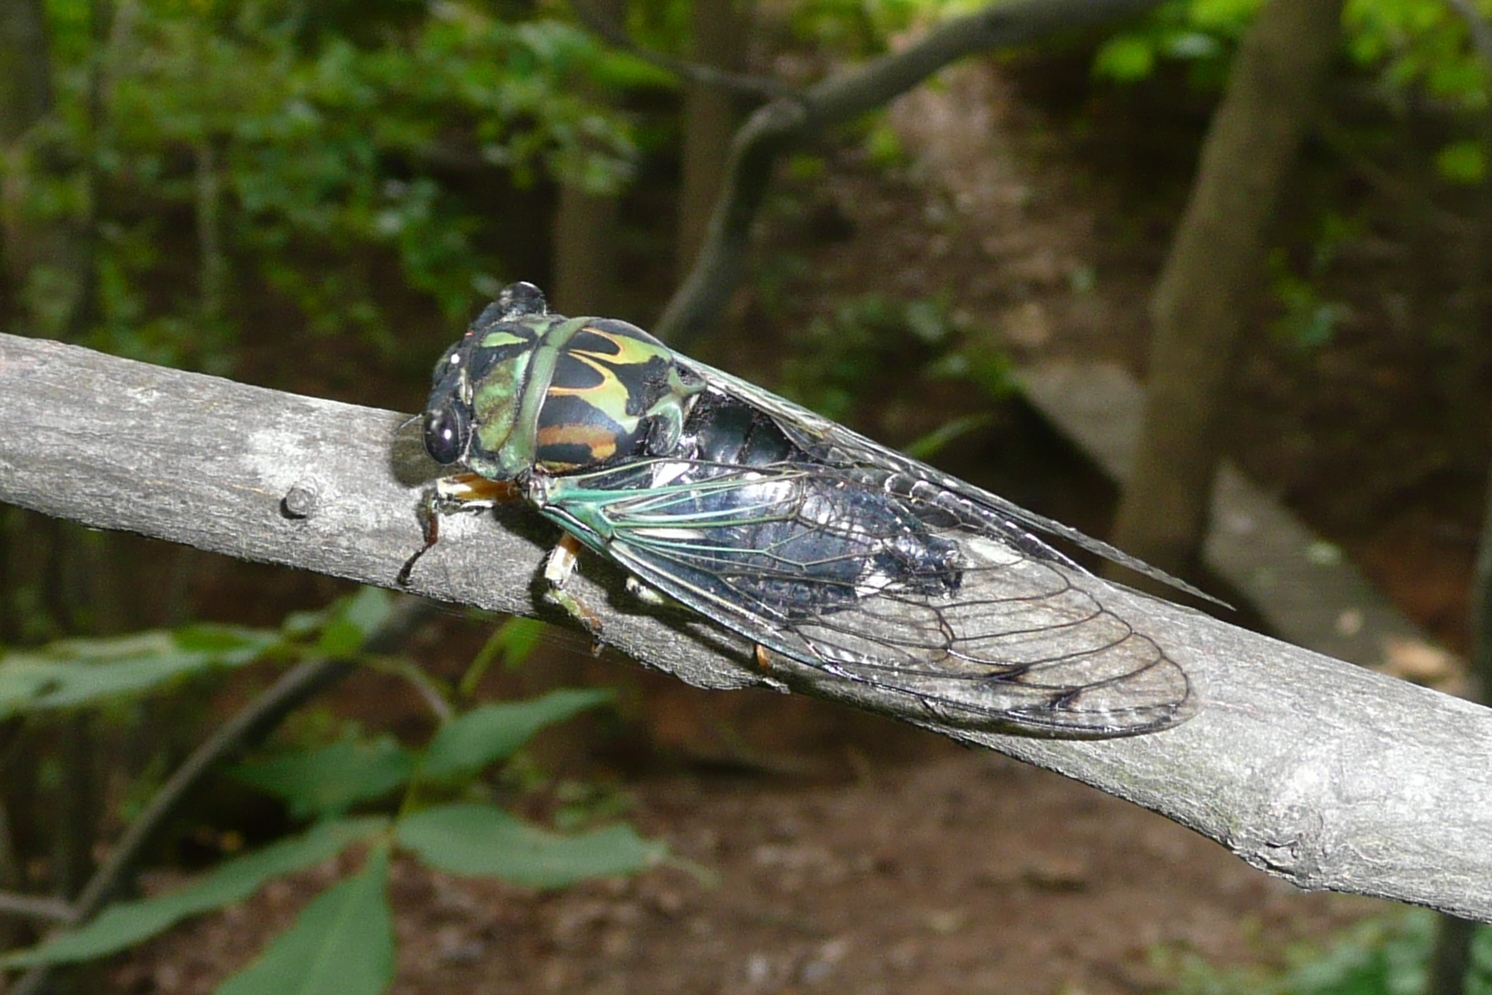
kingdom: Animalia
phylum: Arthropoda
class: Insecta
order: Hemiptera
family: Cicadidae
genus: Neotibicen
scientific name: Neotibicen robinsonianus
